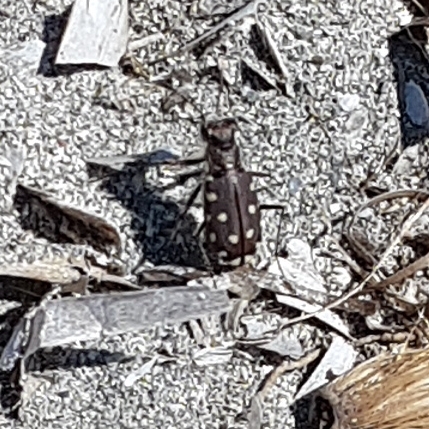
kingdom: Animalia
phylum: Arthropoda
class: Insecta
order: Coleoptera
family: Carabidae
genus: Cicindela
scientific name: Cicindela littoralis
